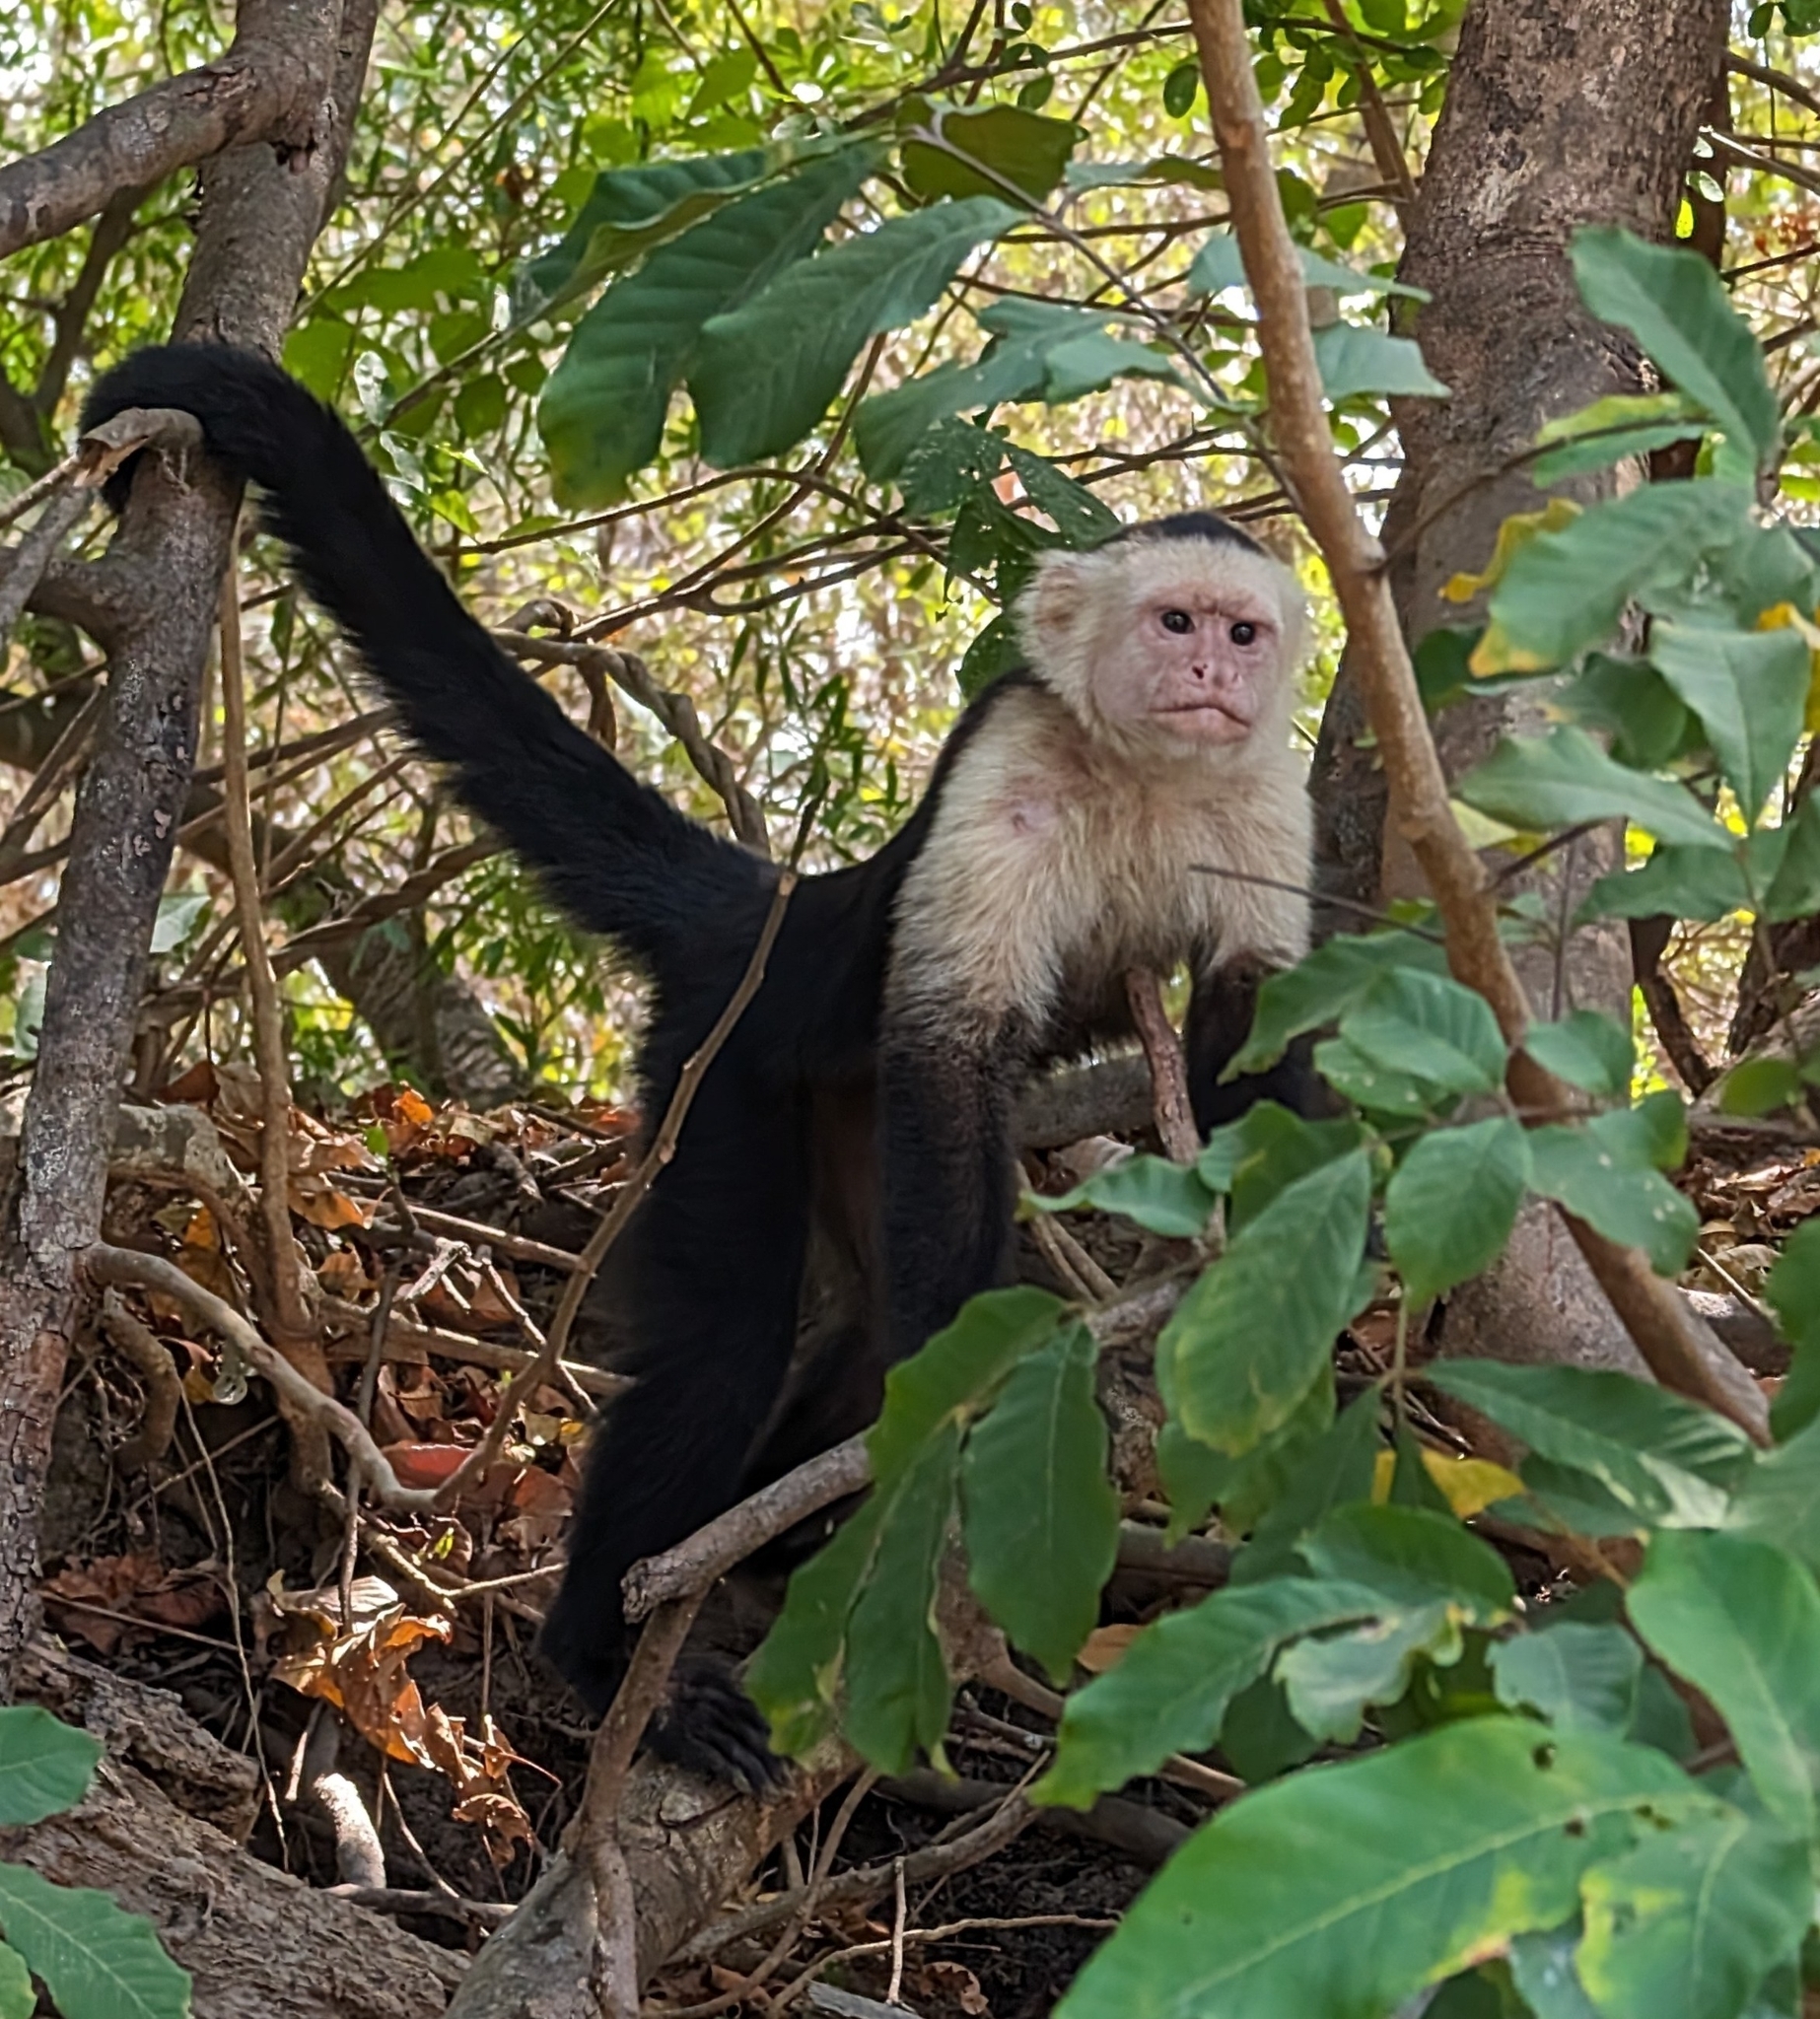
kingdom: Animalia
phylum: Chordata
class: Mammalia
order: Primates
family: Cebidae
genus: Cebus
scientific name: Cebus imitator
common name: Panamanian white-faced capuchin
